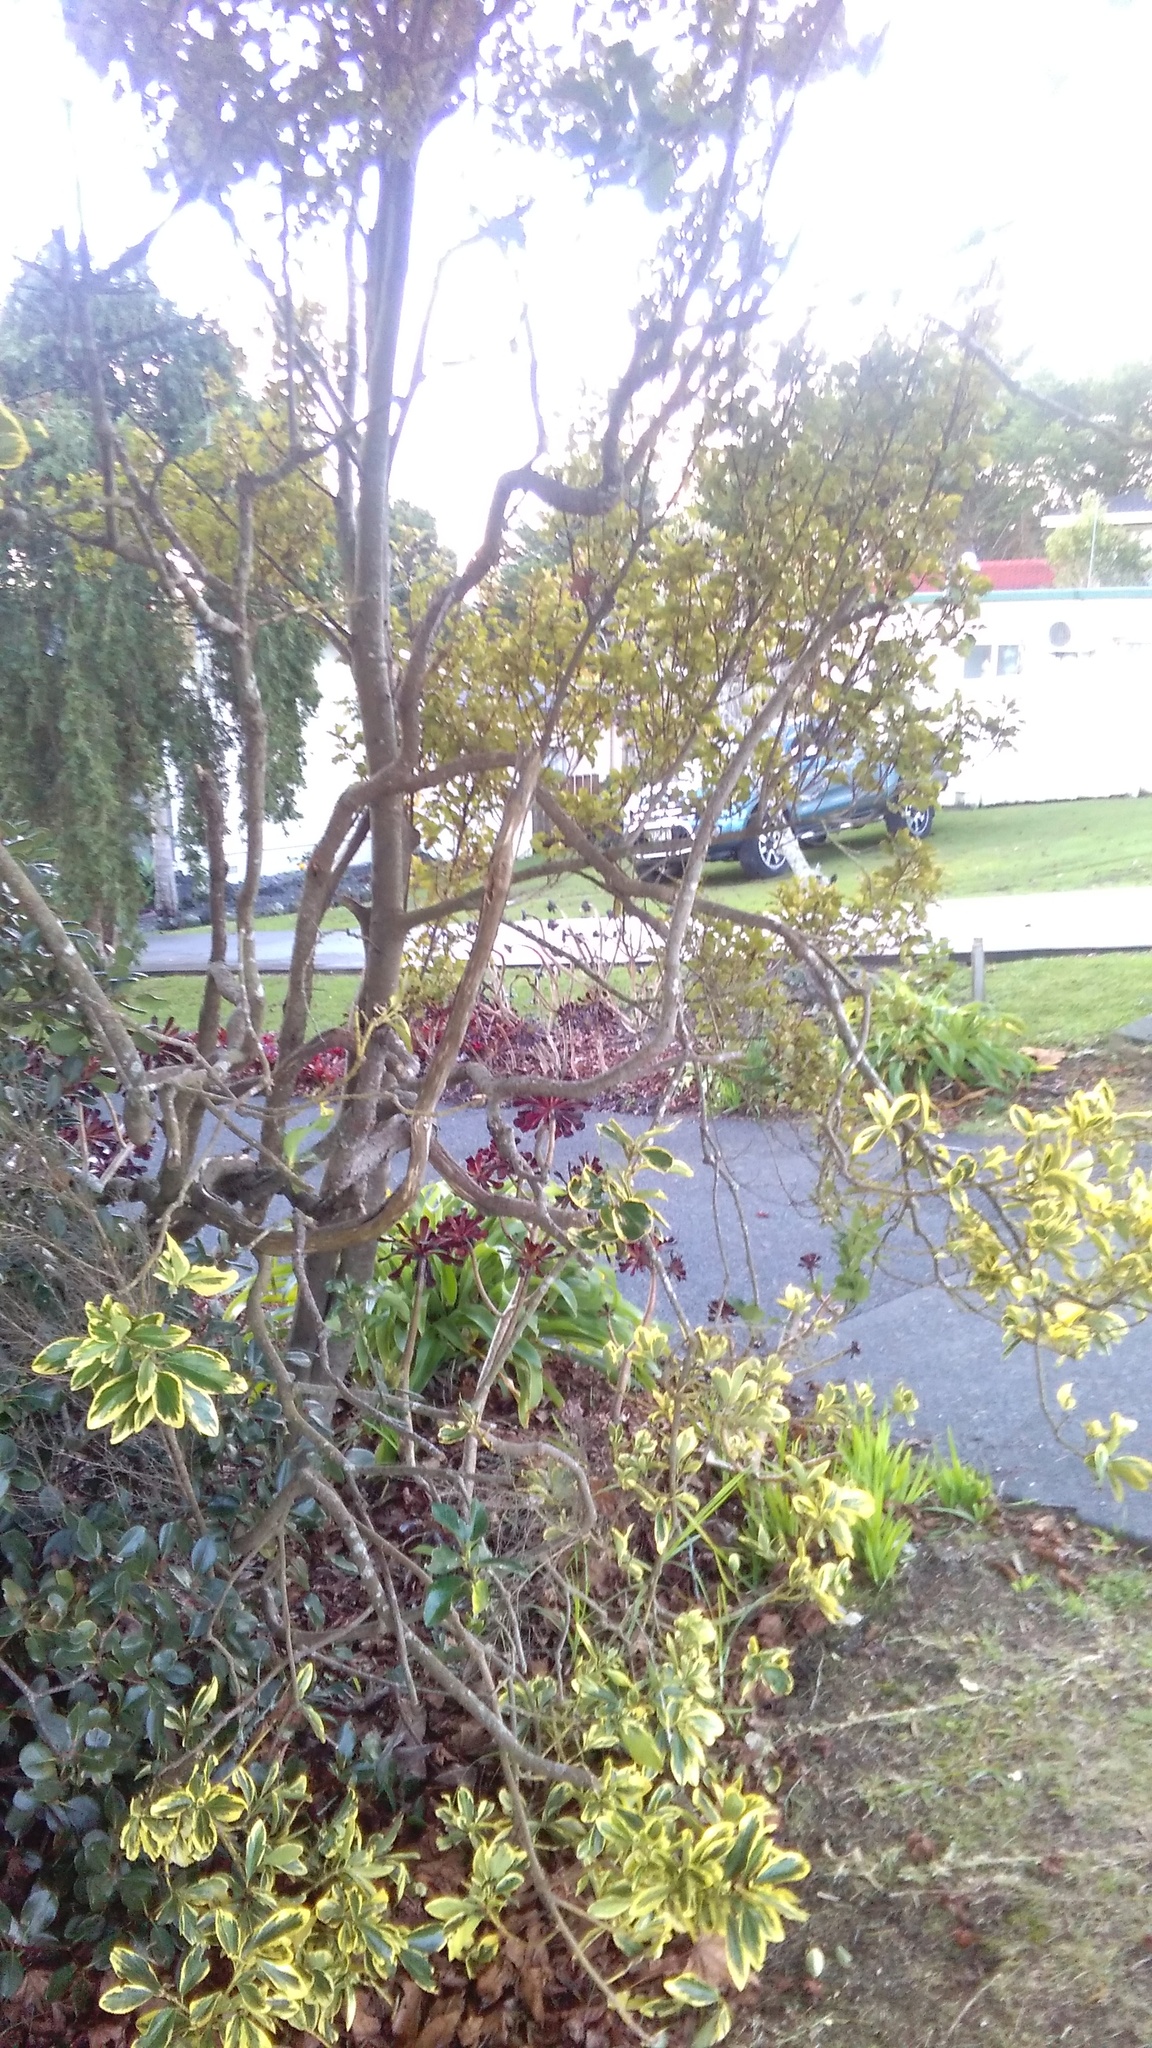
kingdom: Plantae
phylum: Tracheophyta
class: Magnoliopsida
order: Celastrales
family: Celastraceae
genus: Euonymus
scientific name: Euonymus japonicus
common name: Japanese spindletree
